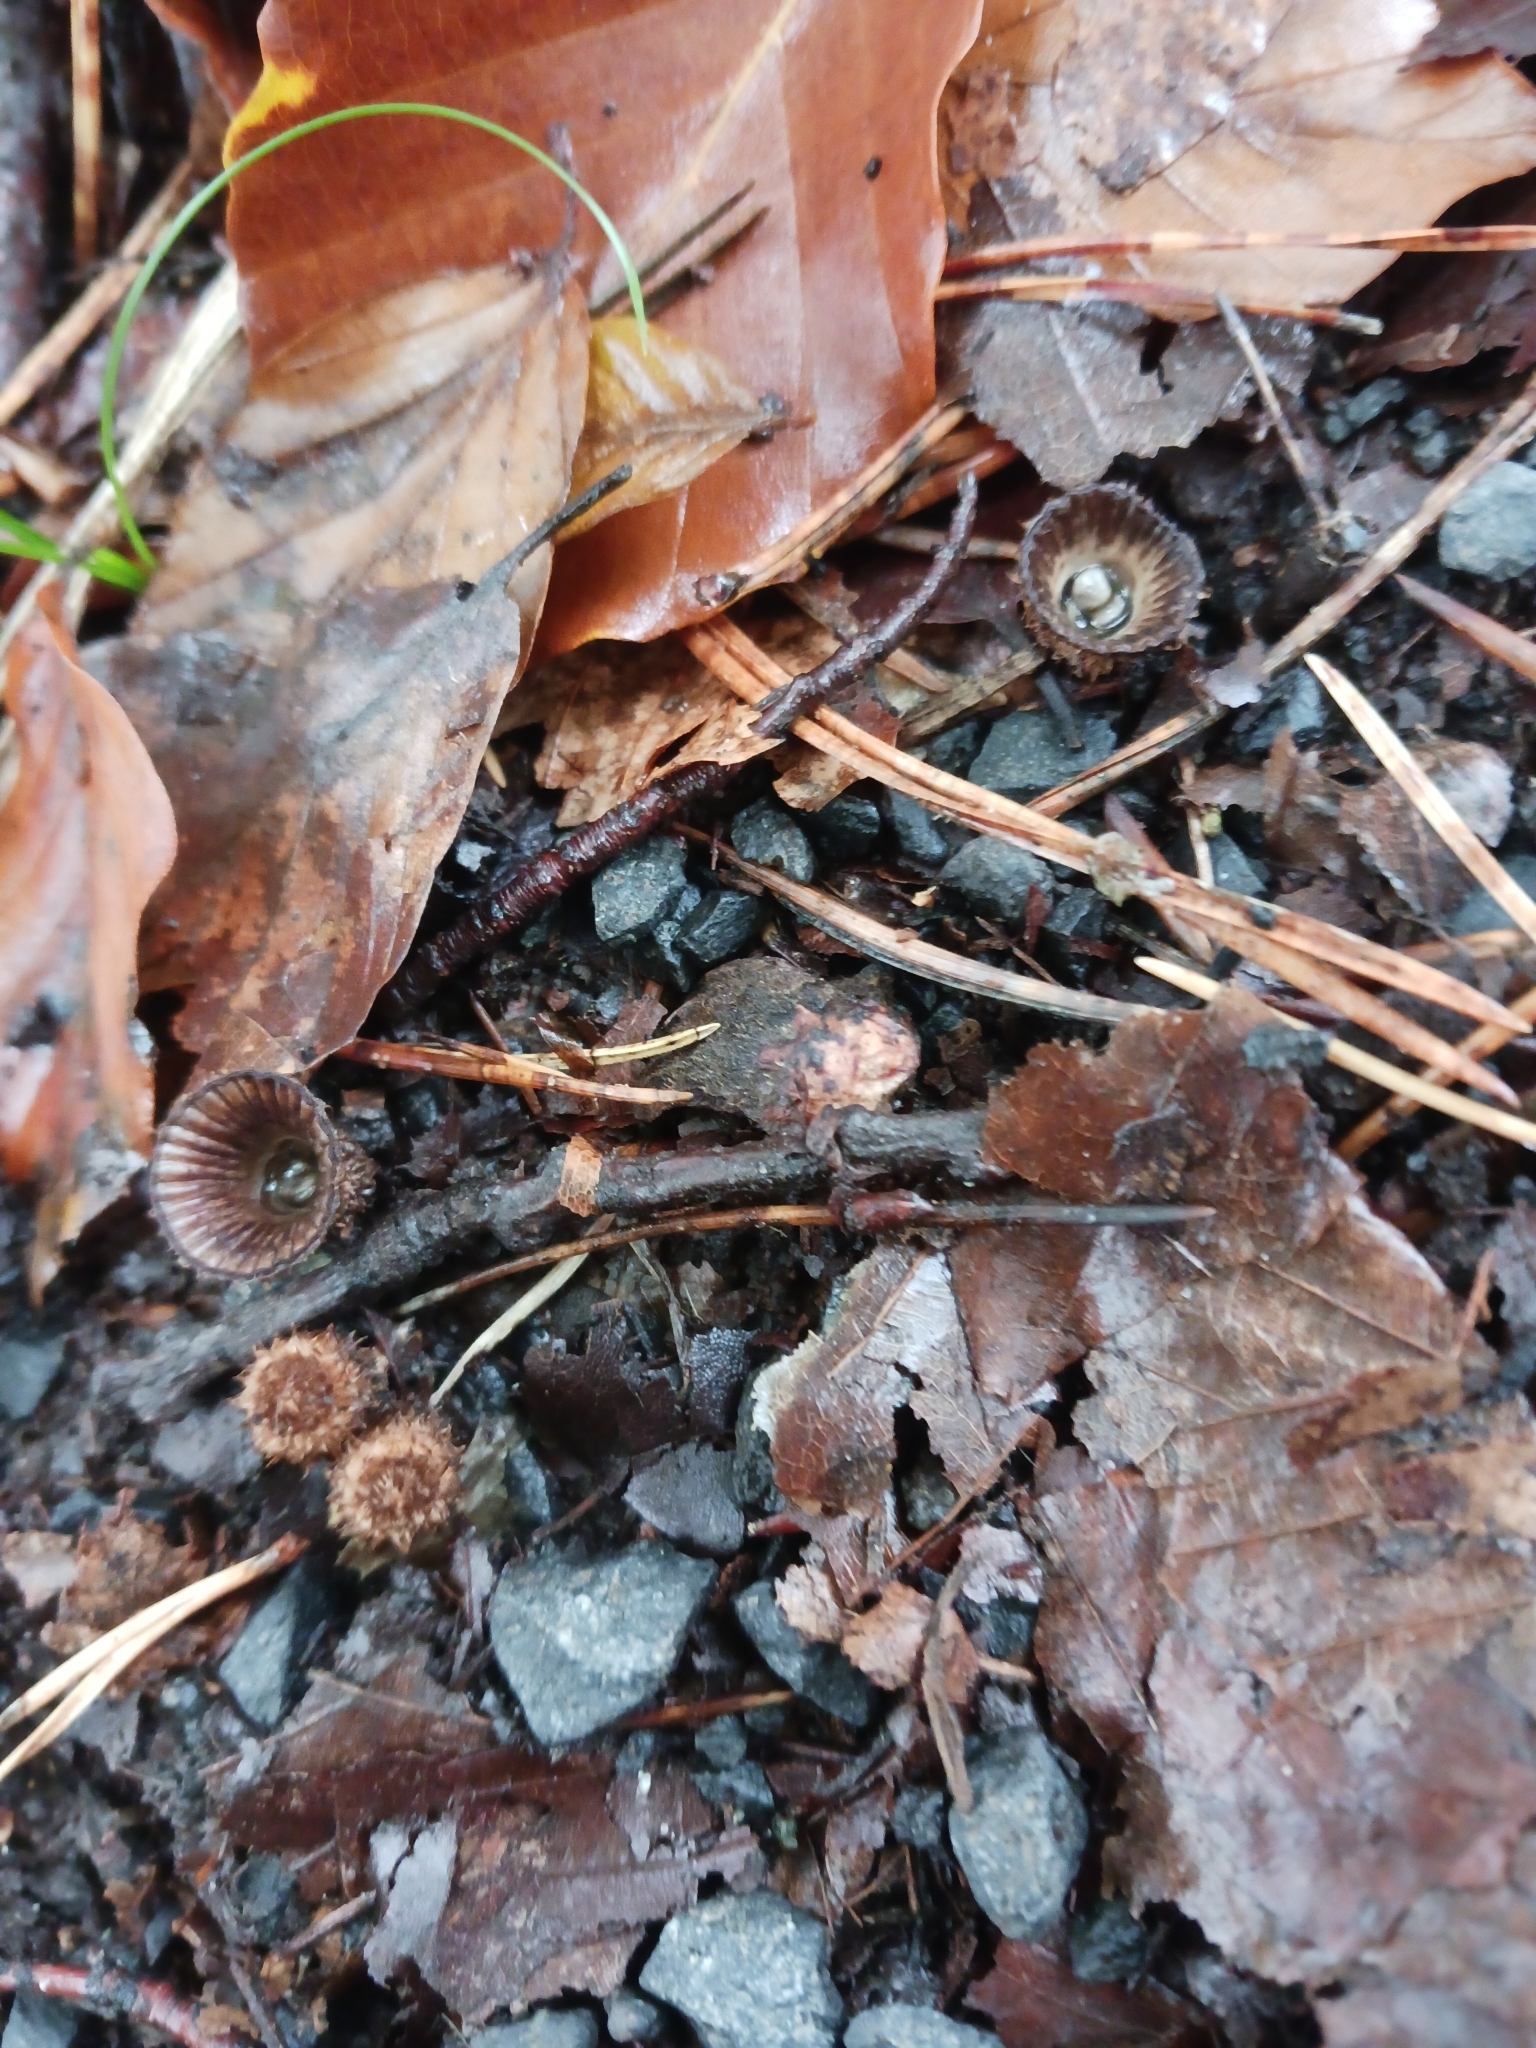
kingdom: Fungi
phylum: Basidiomycota
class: Agaricomycetes
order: Agaricales
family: Agaricaceae
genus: Cyathus
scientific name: Cyathus striatus
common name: Fluted bird's nest
